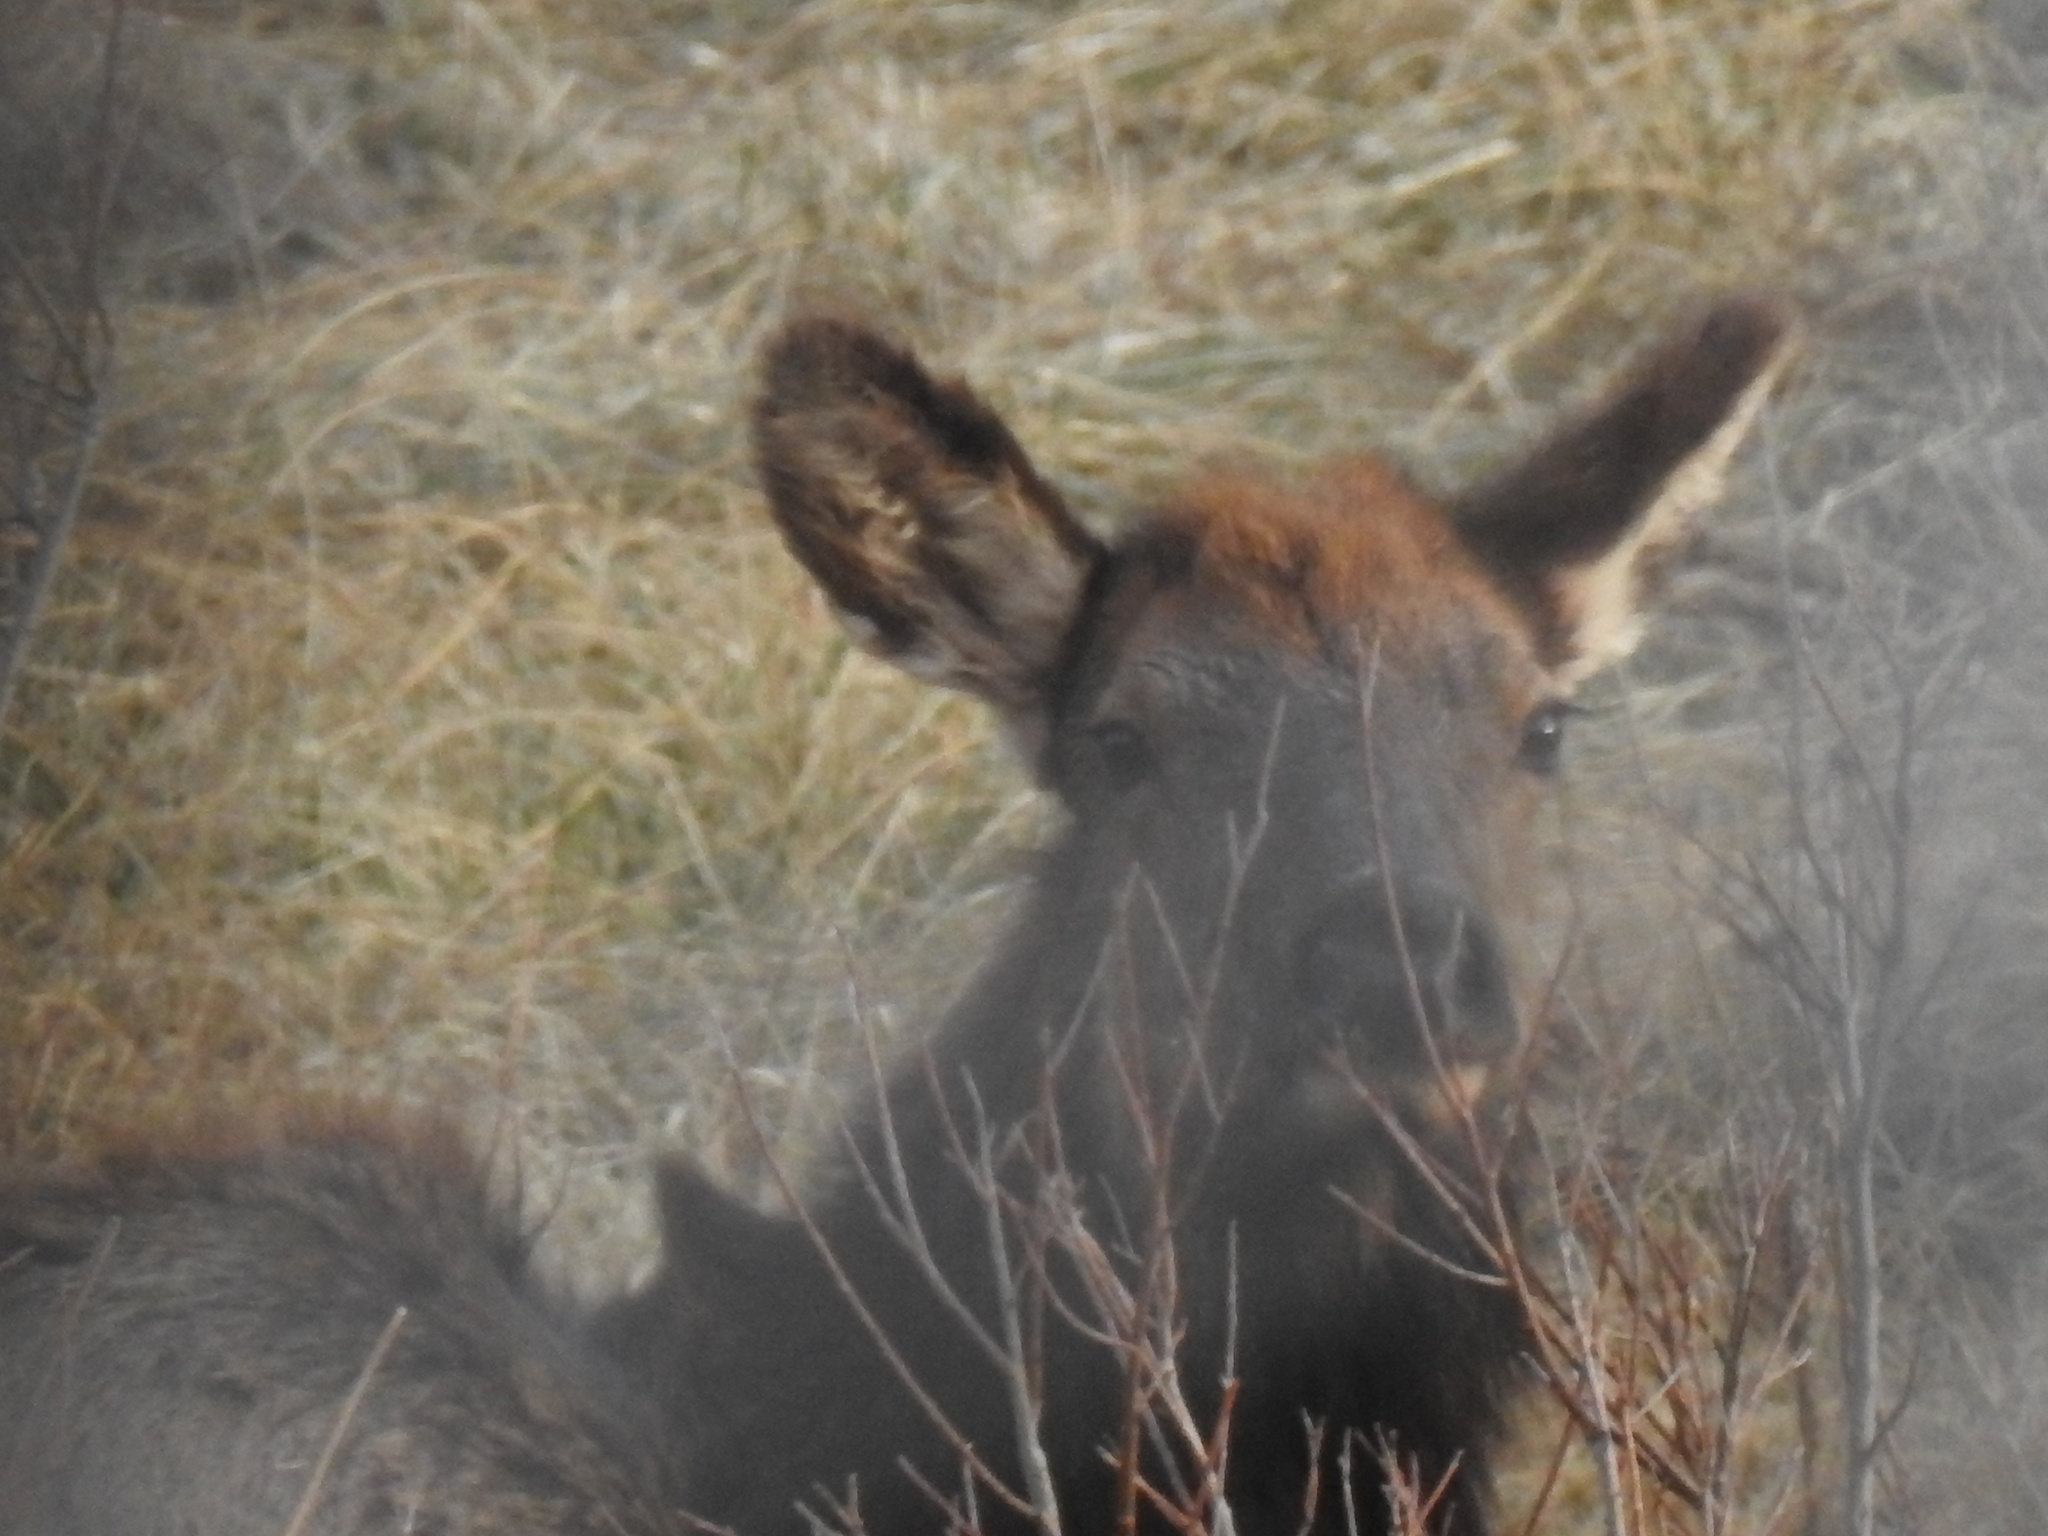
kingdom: Animalia
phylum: Chordata
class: Mammalia
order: Artiodactyla
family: Cervidae
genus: Cervus
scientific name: Cervus elaphus
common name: Red deer
